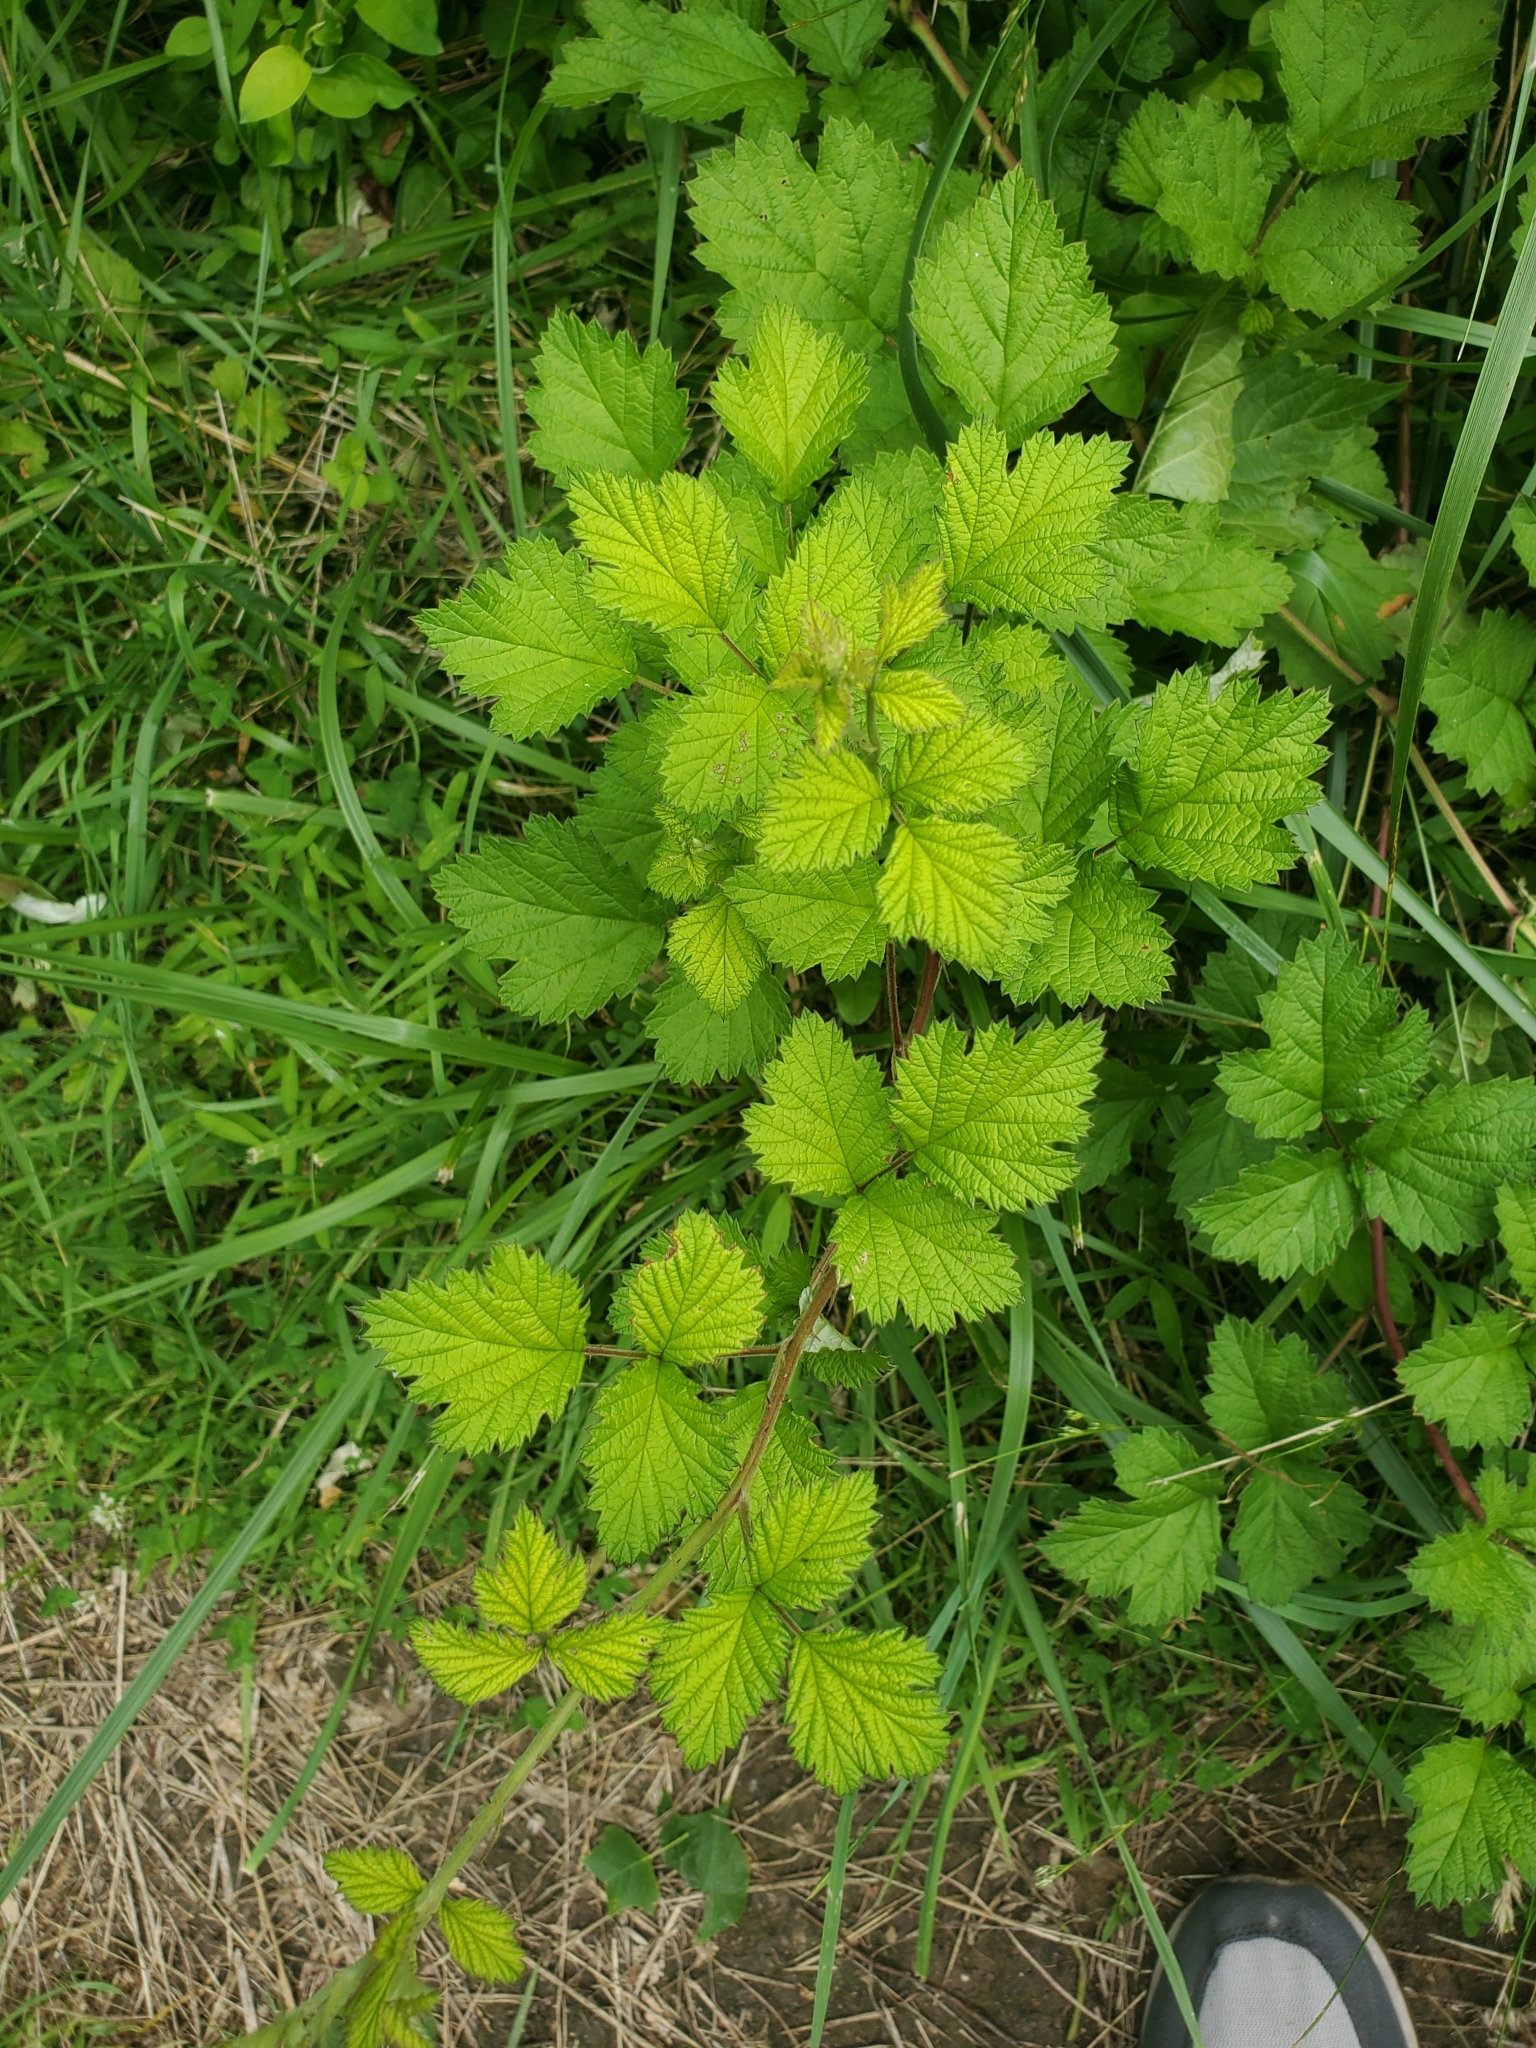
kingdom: Plantae
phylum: Tracheophyta
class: Magnoliopsida
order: Rosales
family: Rosaceae
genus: Rubus
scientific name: Rubus parvifolius
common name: Threeleaf blackberry
